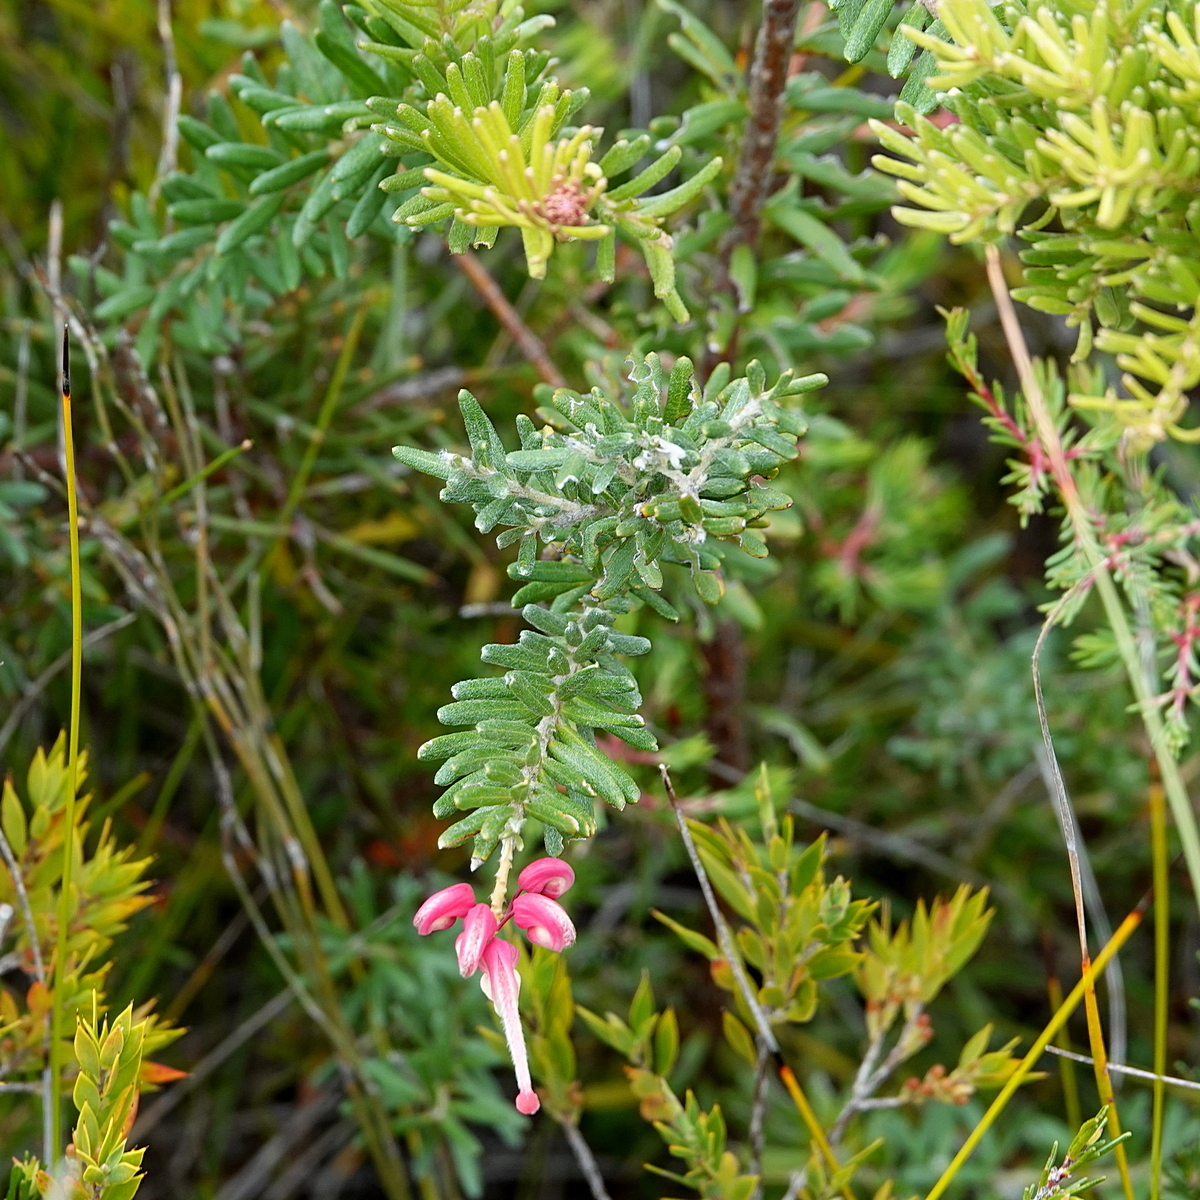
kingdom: Plantae
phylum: Tracheophyta
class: Magnoliopsida
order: Proteales
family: Proteaceae
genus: Grevillea
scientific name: Grevillea lanigera
